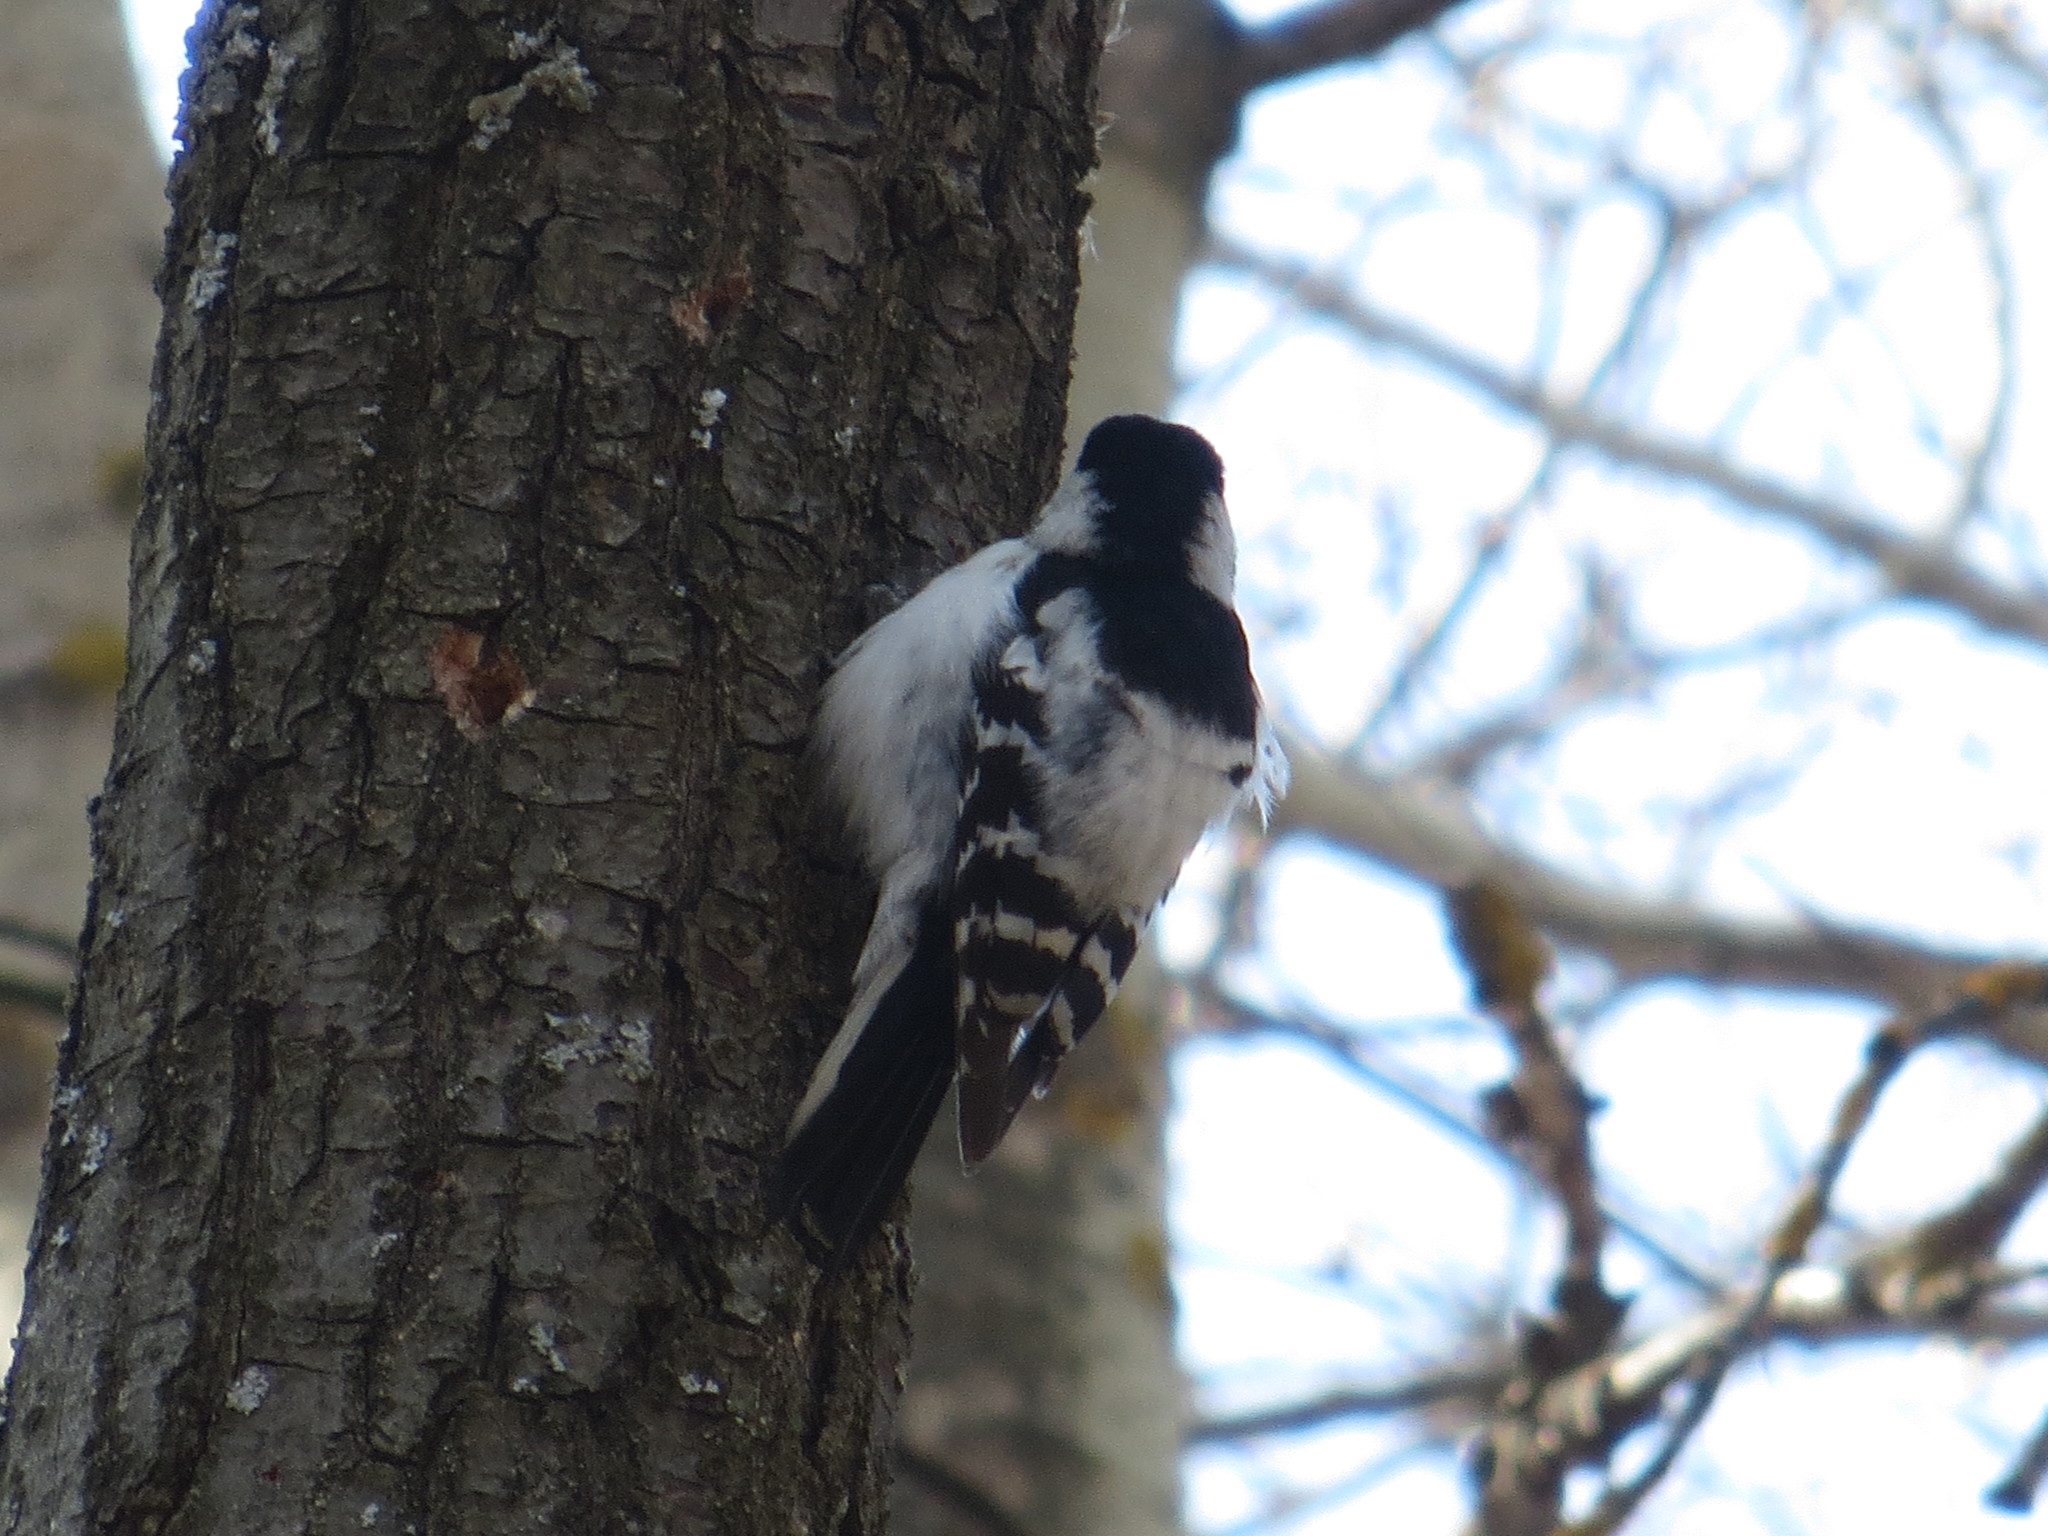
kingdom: Animalia
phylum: Chordata
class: Aves
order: Piciformes
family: Picidae
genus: Dryobates
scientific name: Dryobates minor
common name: Lesser spotted woodpecker
